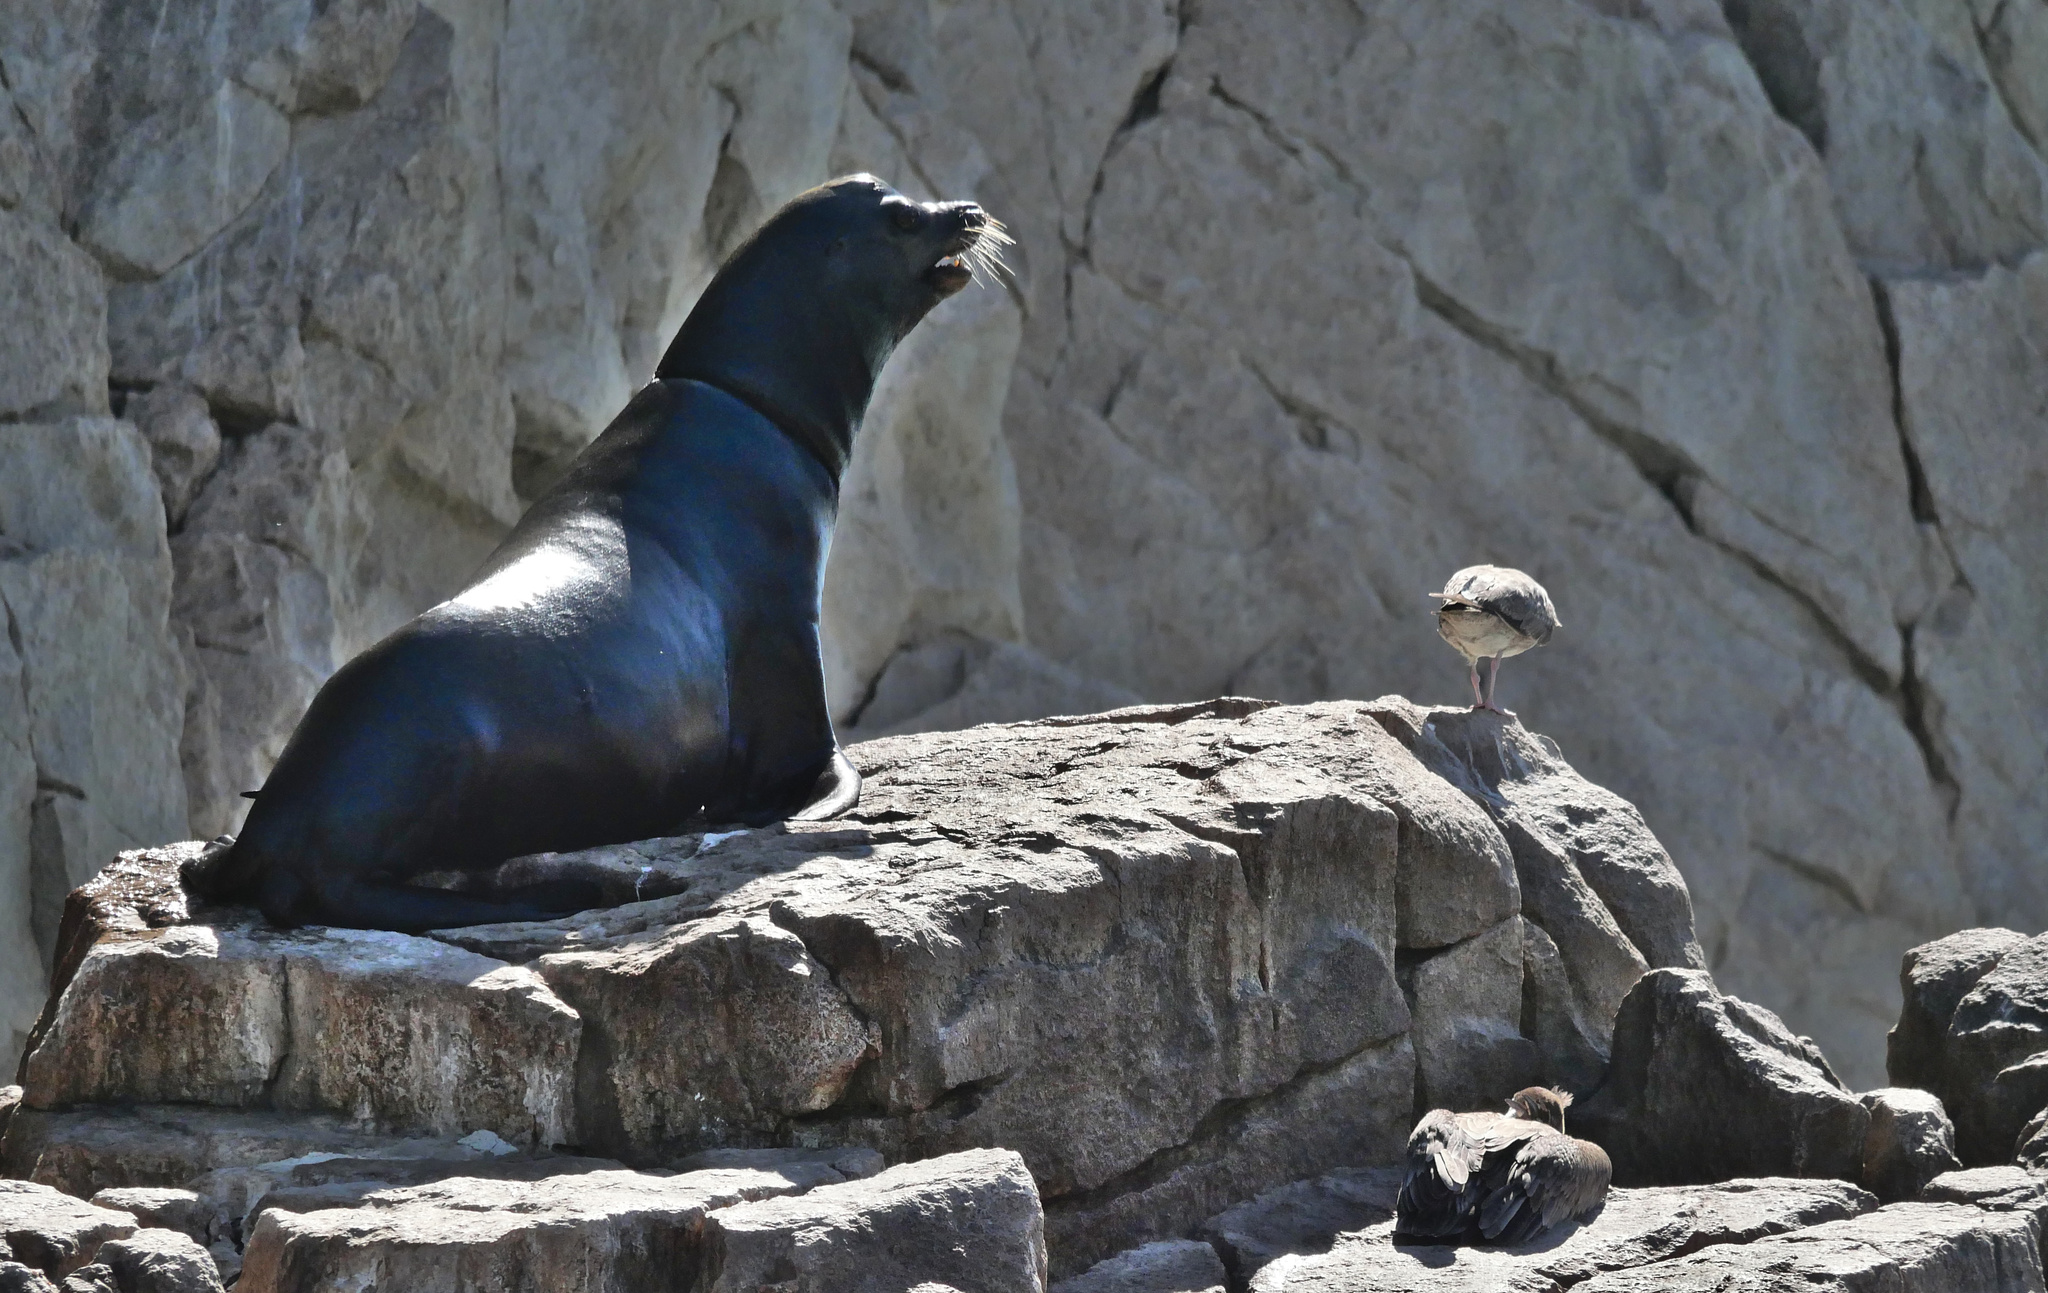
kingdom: Animalia
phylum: Chordata
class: Mammalia
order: Carnivora
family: Otariidae
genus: Zalophus
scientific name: Zalophus californianus
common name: California sea lion
